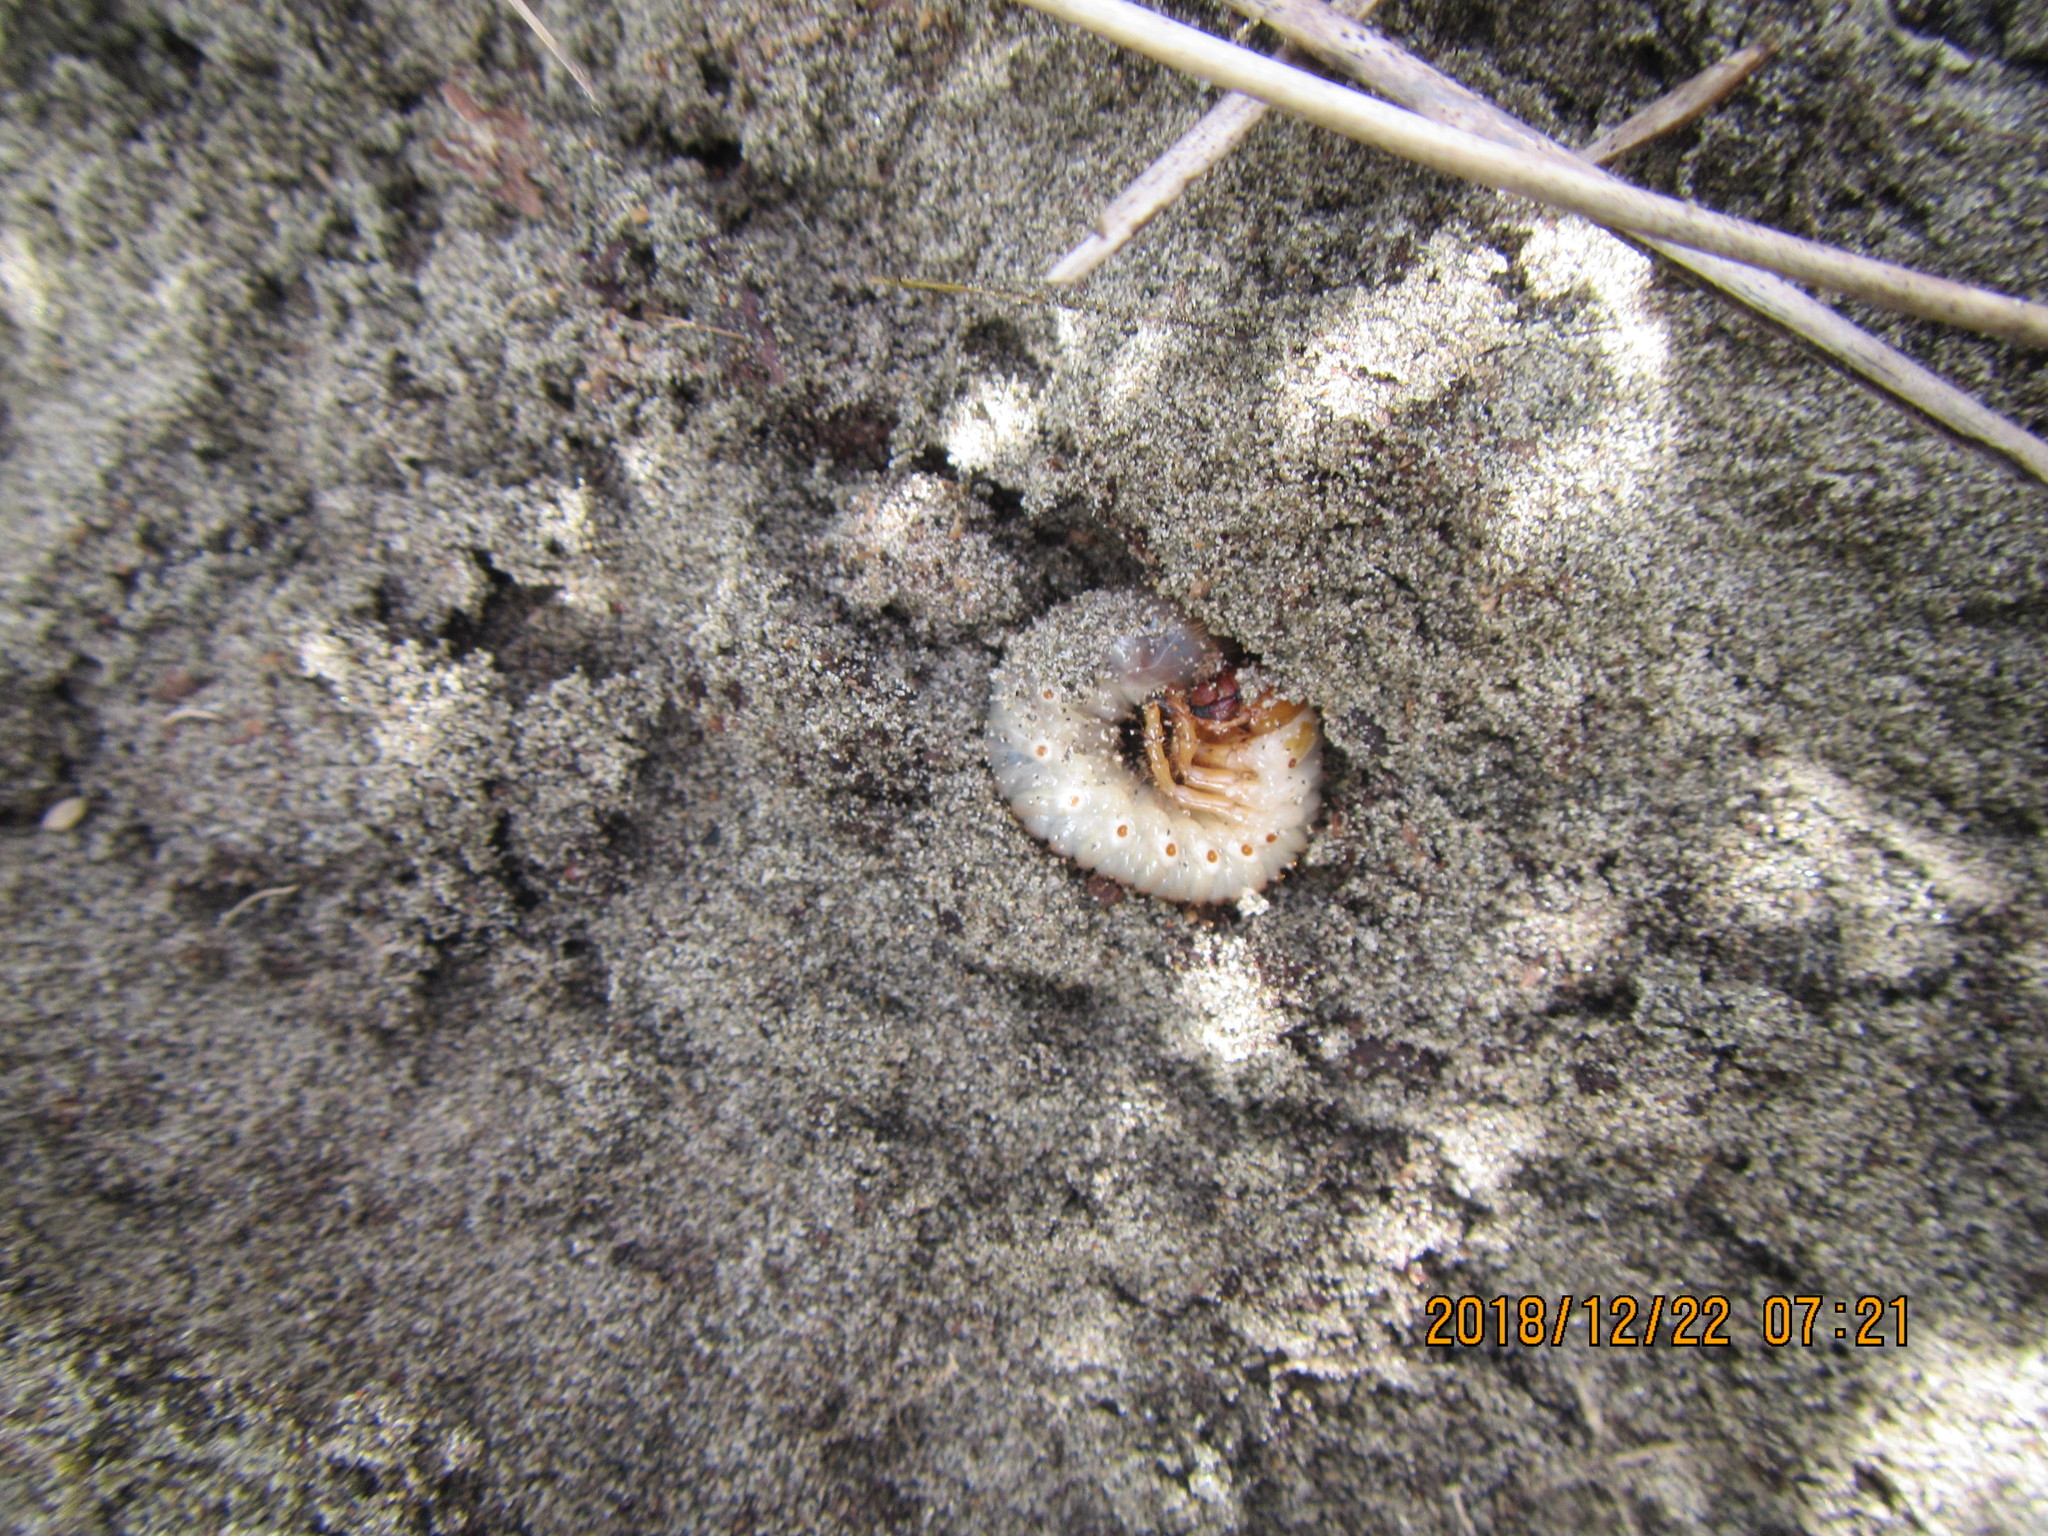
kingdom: Animalia
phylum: Arthropoda
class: Insecta
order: Coleoptera
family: Scarabaeidae
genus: Pericoptus
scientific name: Pericoptus truncatus
